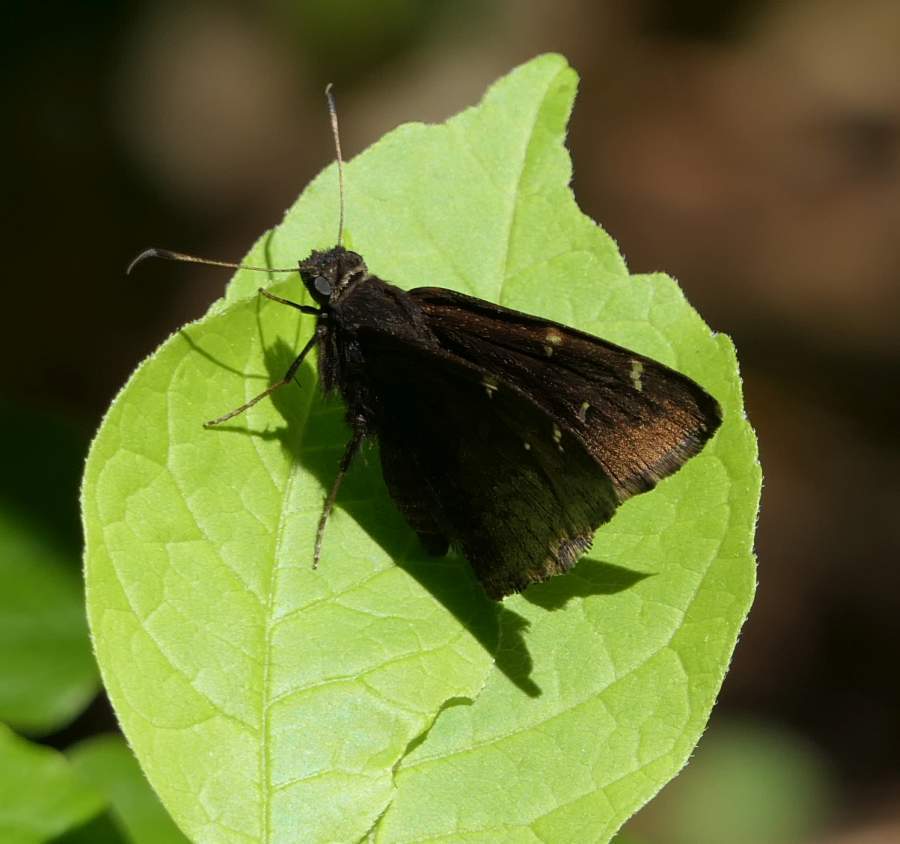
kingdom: Animalia
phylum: Arthropoda
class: Insecta
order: Lepidoptera
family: Hesperiidae
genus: Thorybes
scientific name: Thorybes pylades
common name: Northern cloudywing
